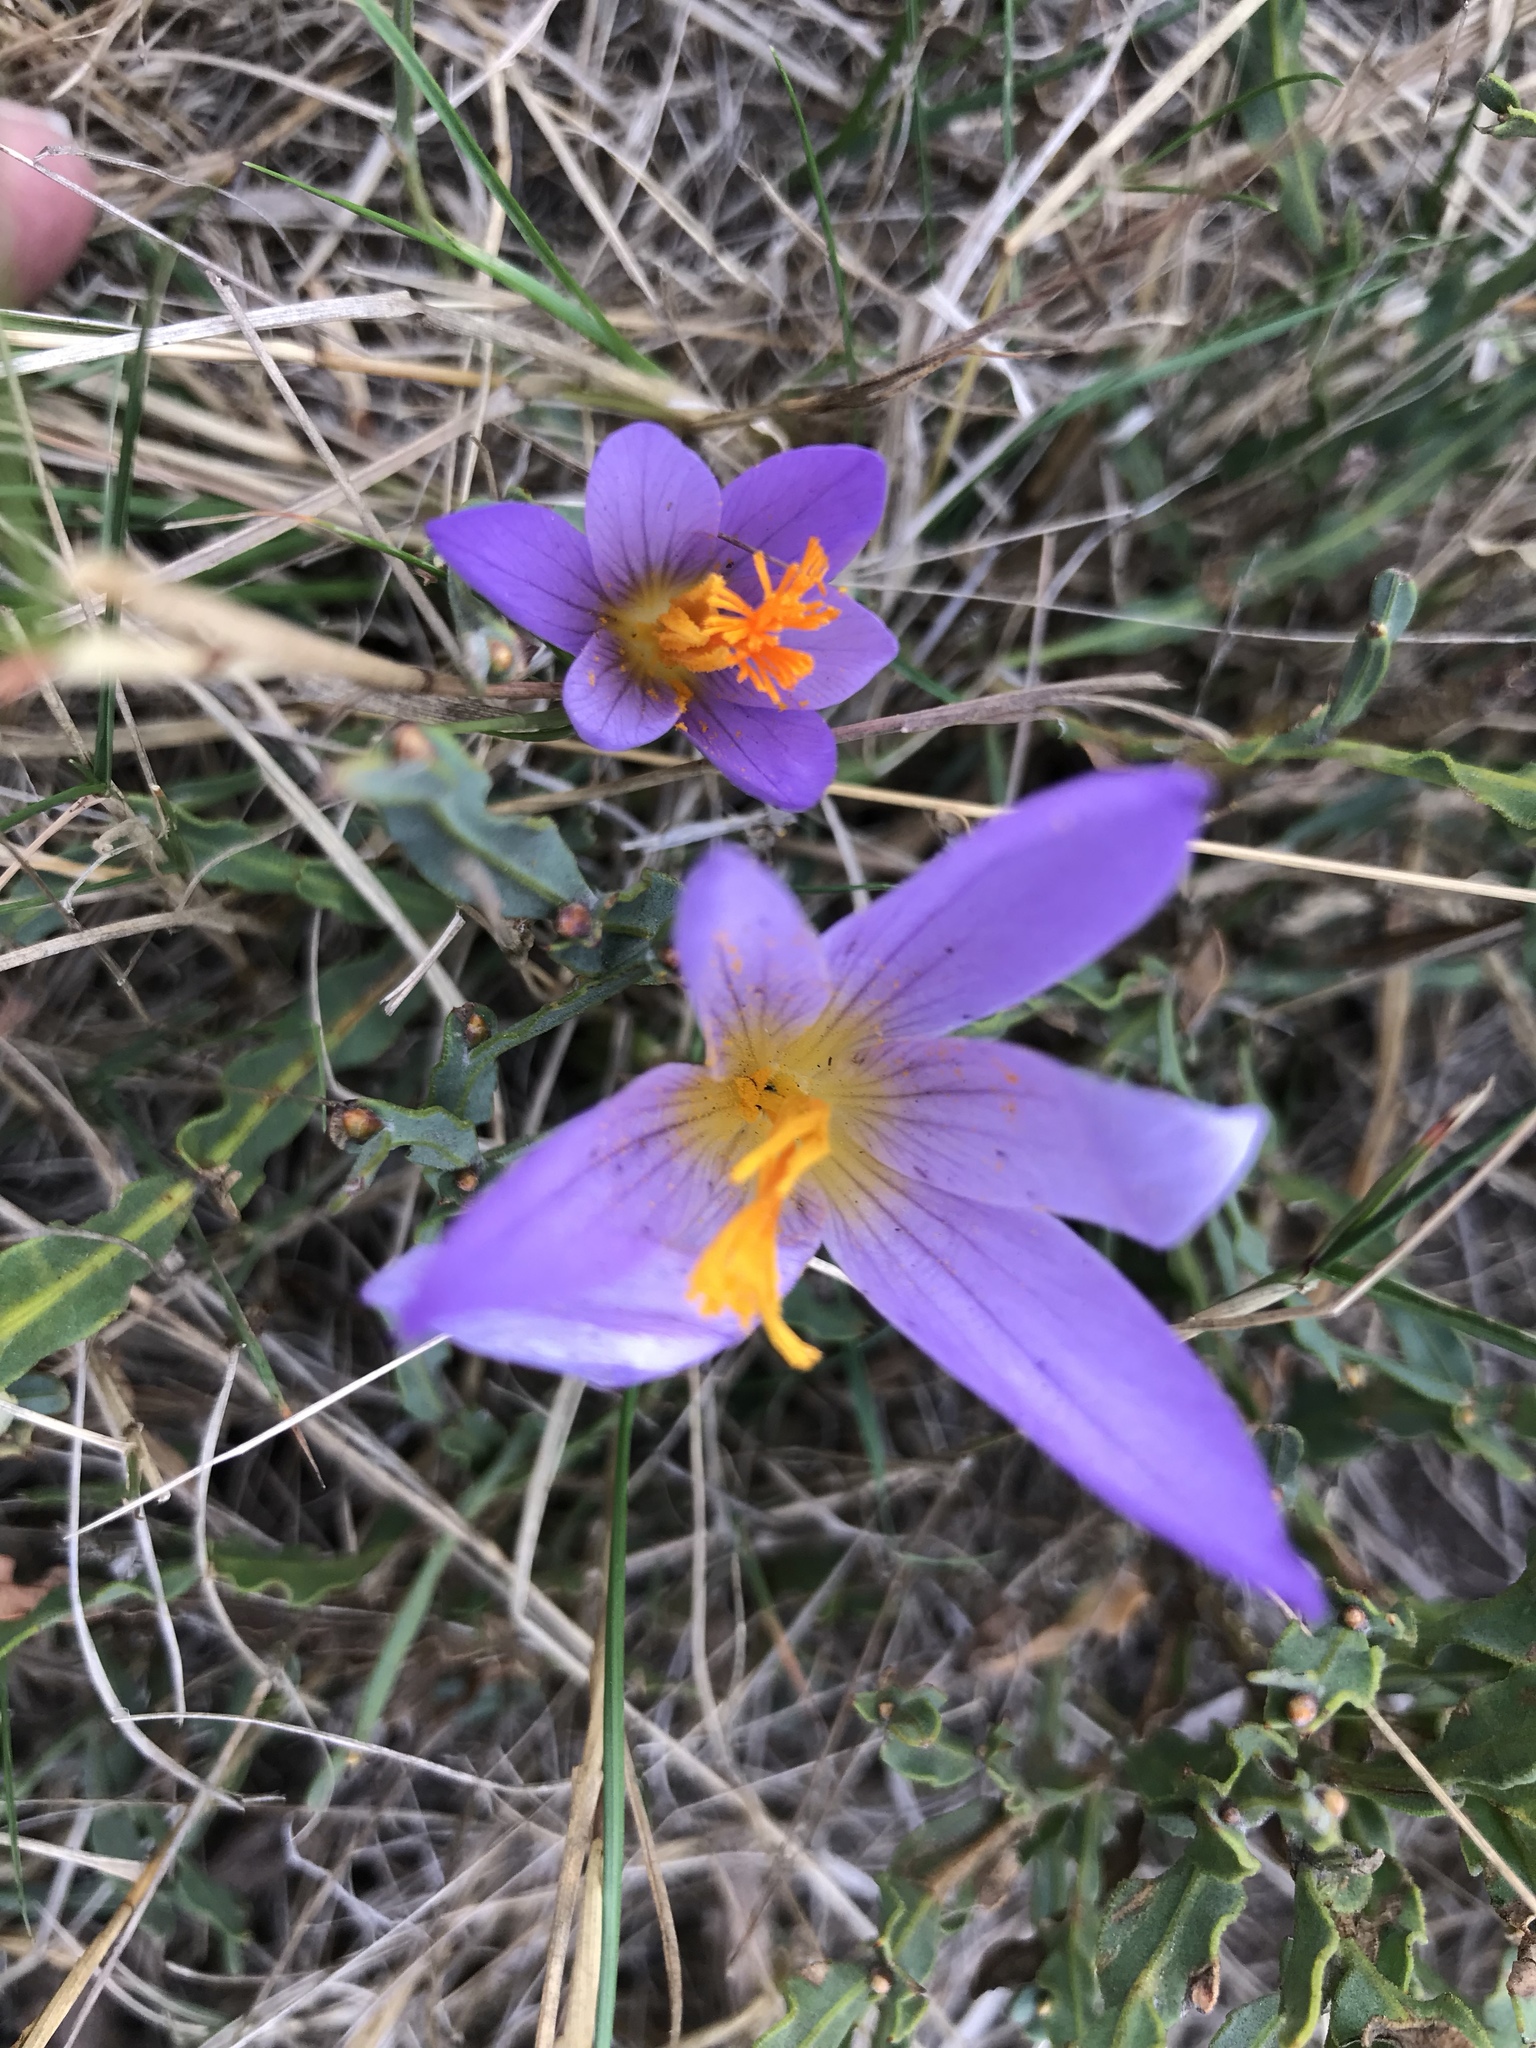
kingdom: Plantae
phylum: Tracheophyta
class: Liliopsida
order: Asparagales
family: Iridaceae
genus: Crocus
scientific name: Crocus serotinus
